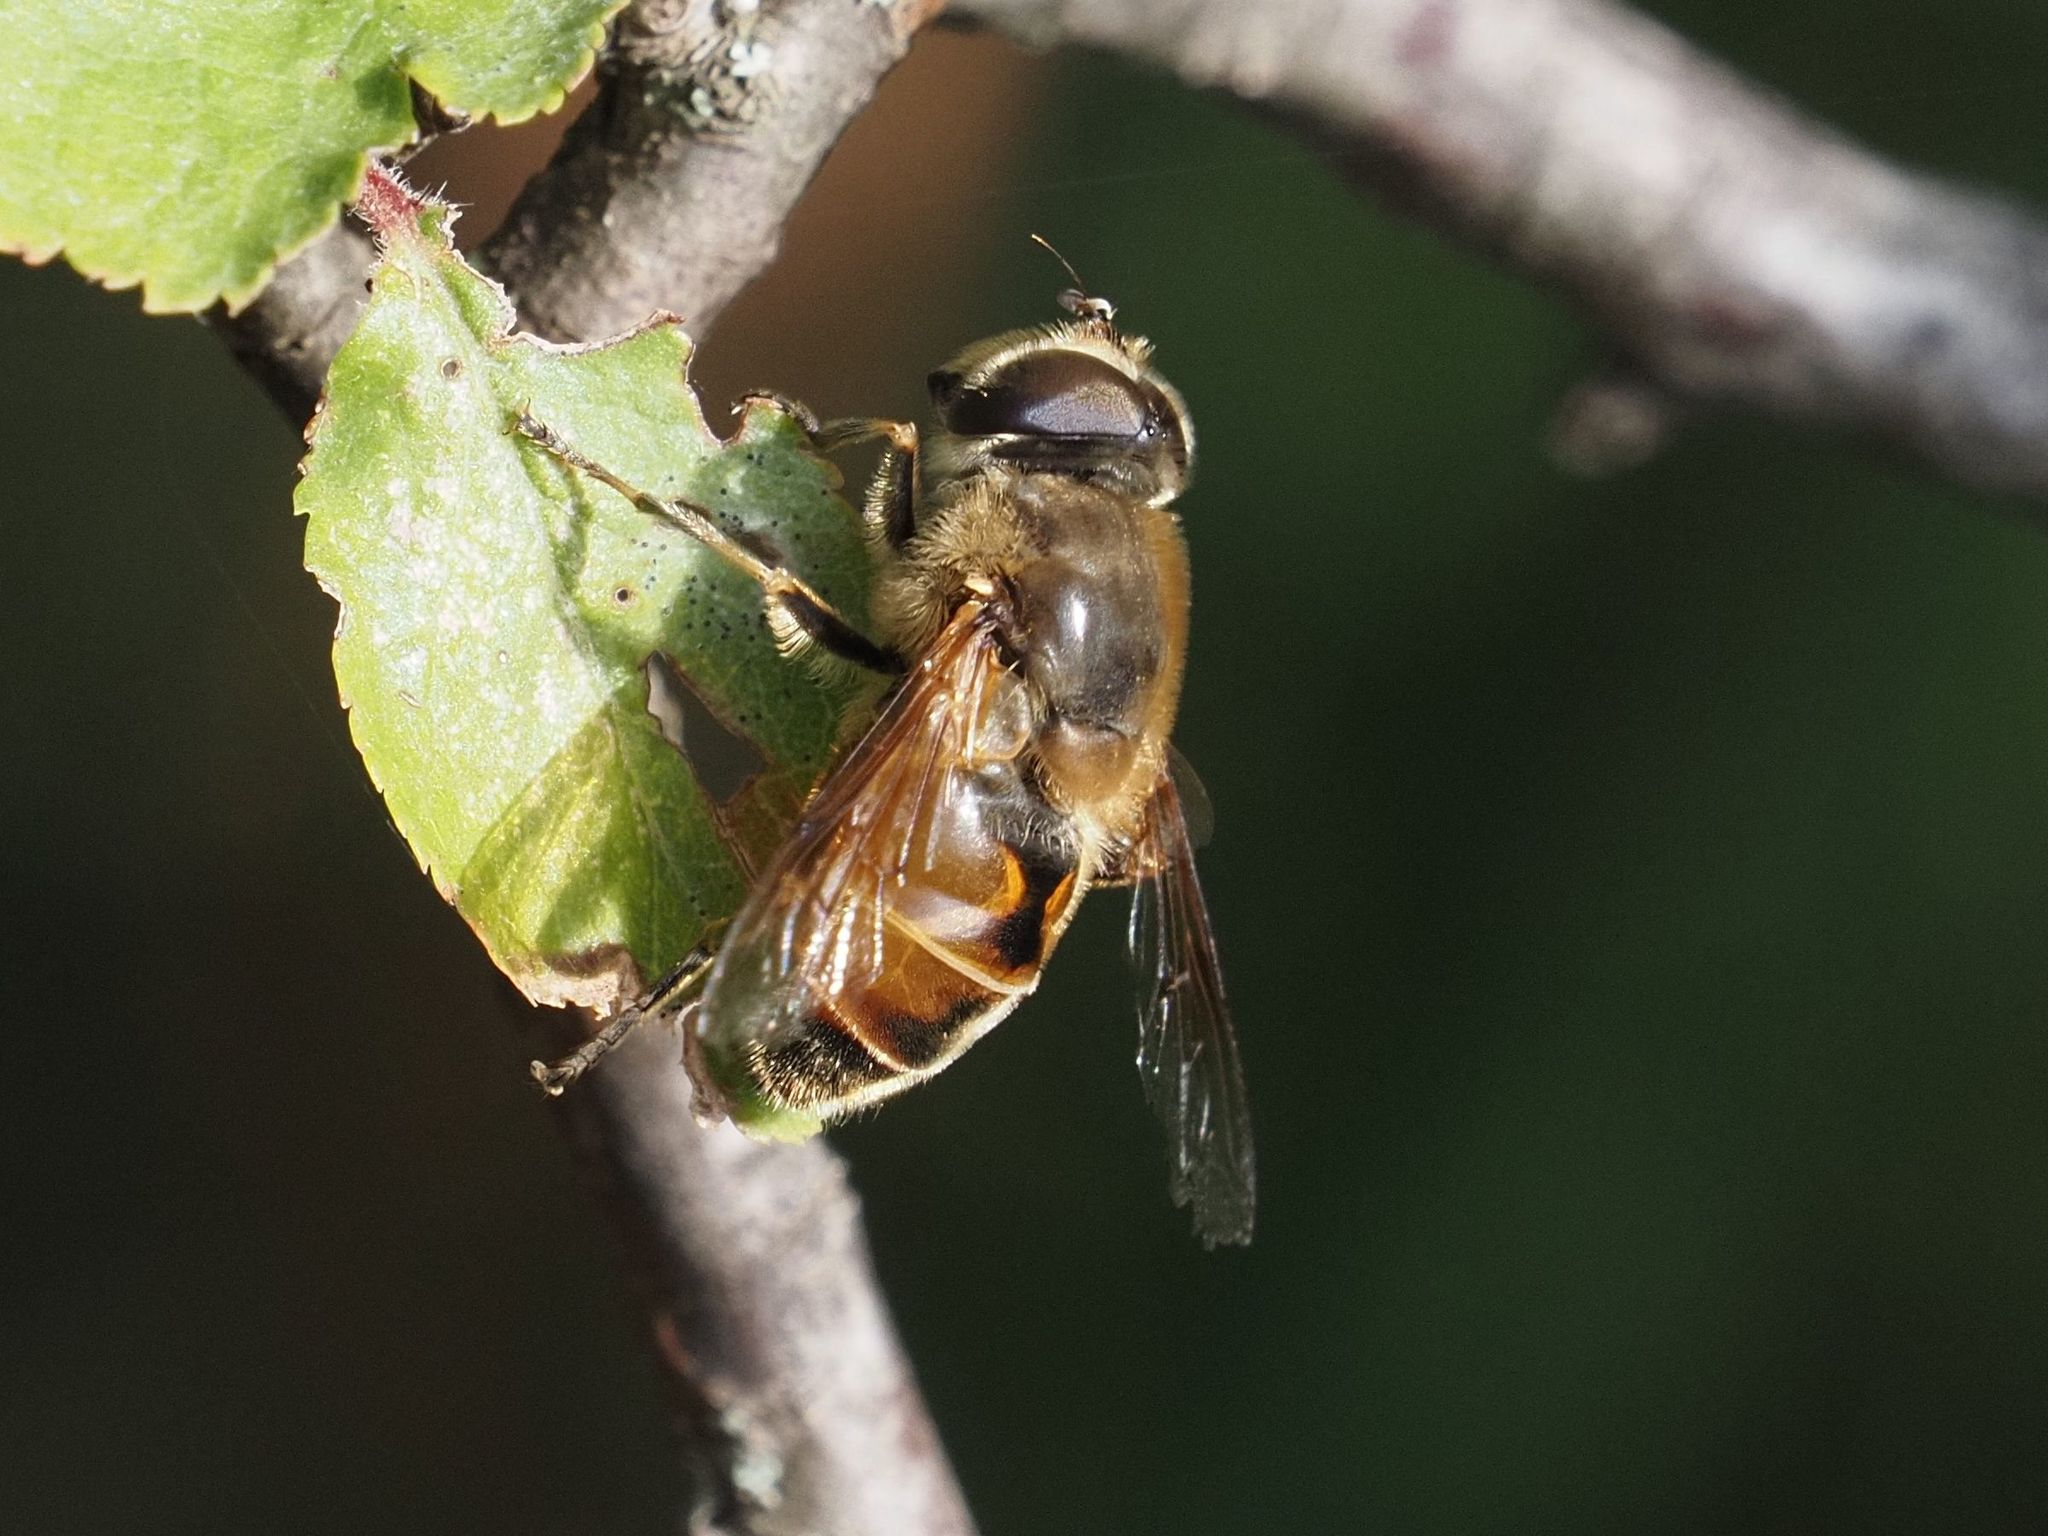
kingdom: Animalia
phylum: Arthropoda
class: Insecta
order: Diptera
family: Syrphidae
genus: Eristalis
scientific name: Eristalis tenax
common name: Drone fly
